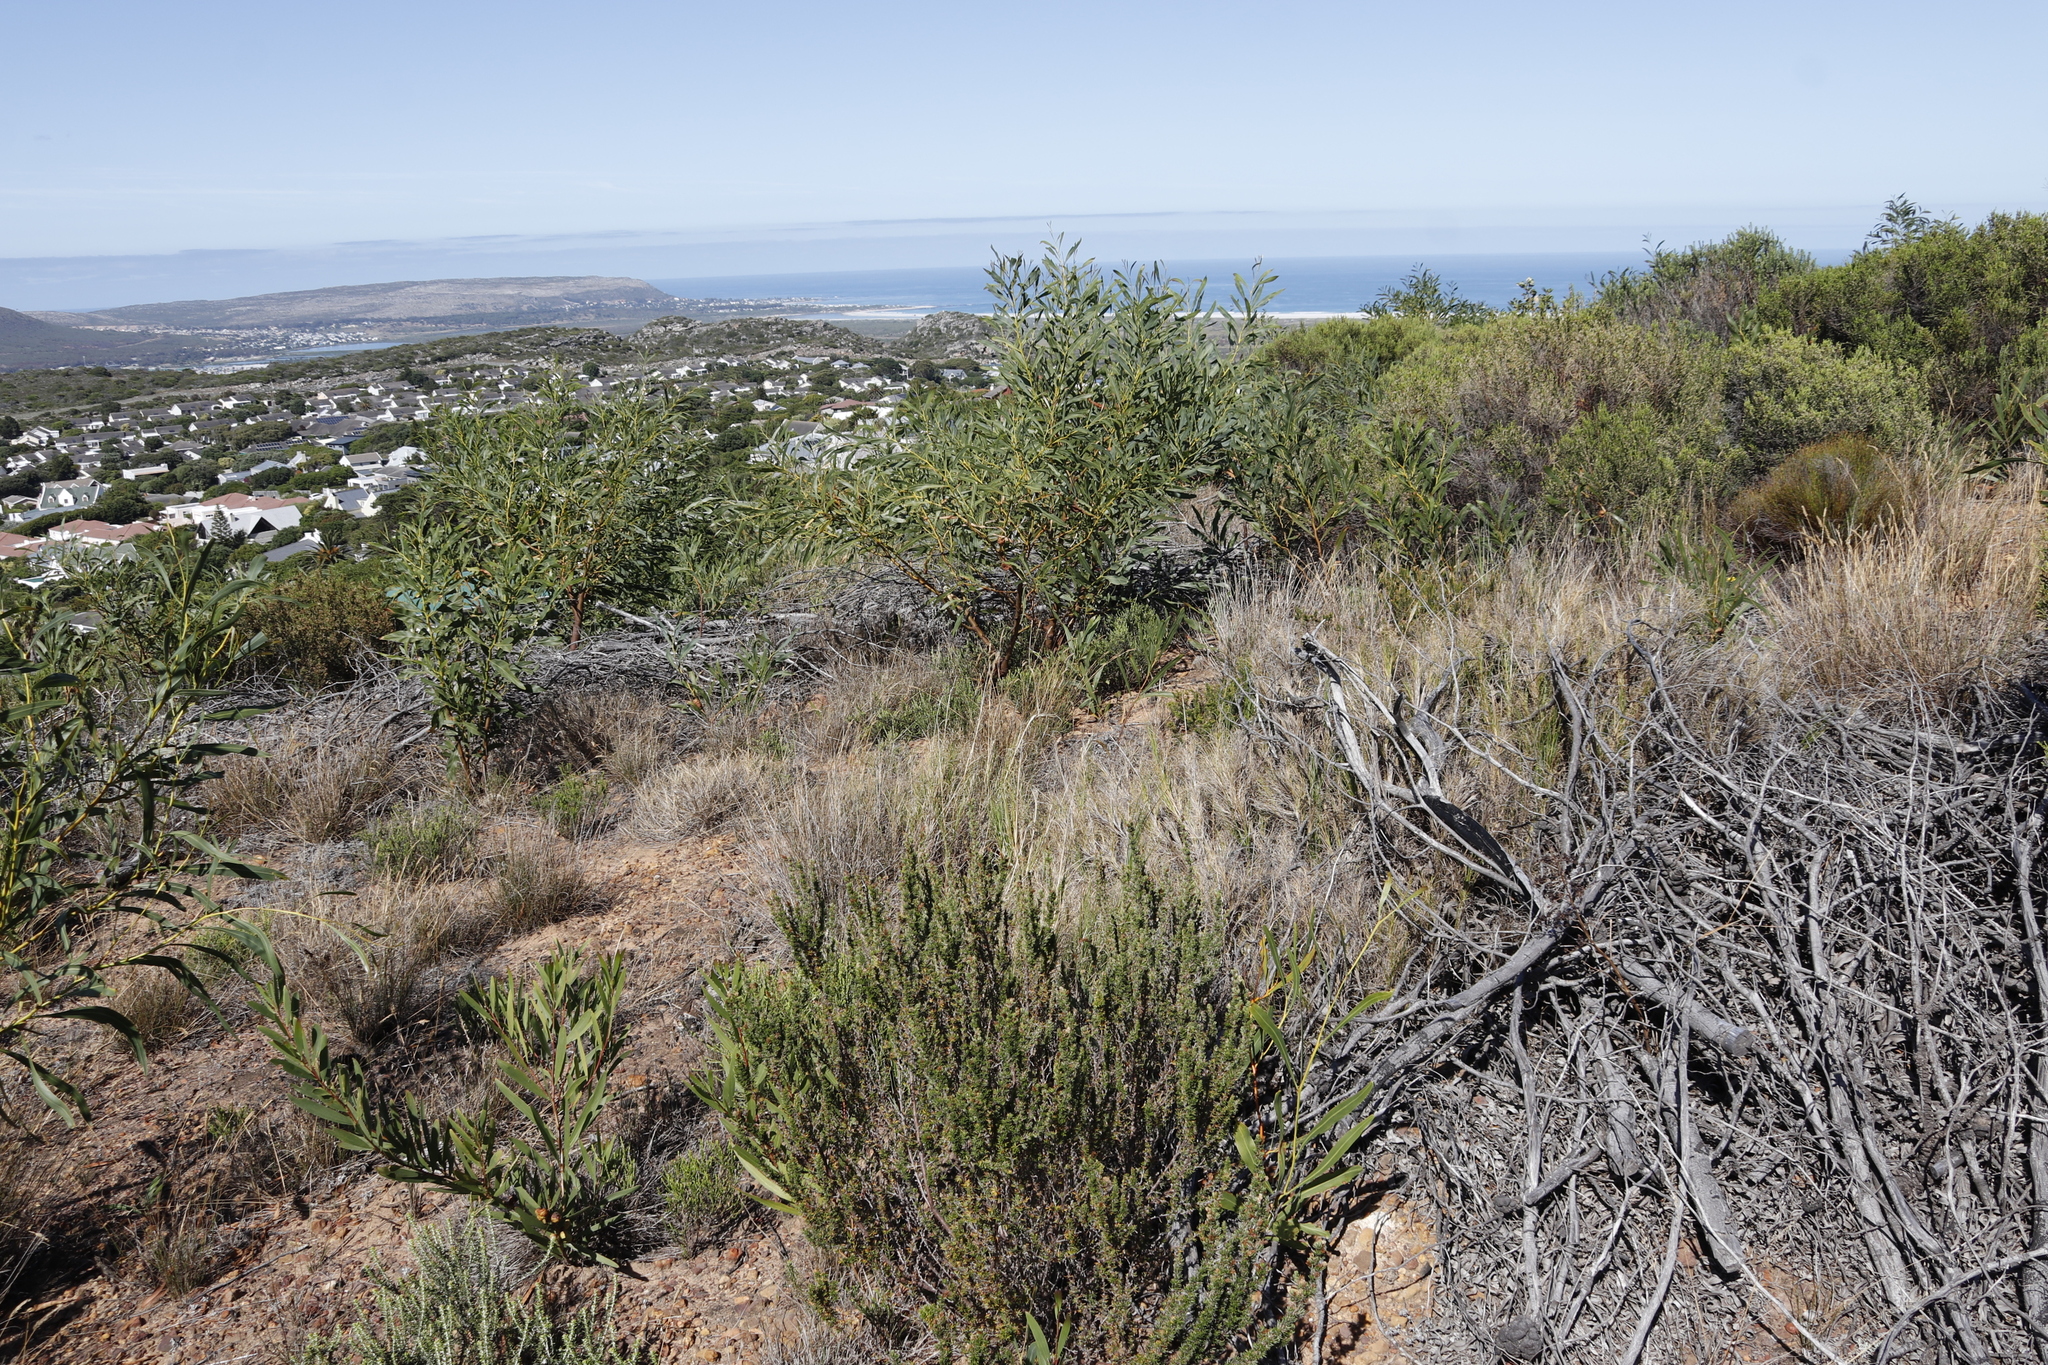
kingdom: Plantae
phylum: Tracheophyta
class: Magnoliopsida
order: Fabales
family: Fabaceae
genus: Acacia
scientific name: Acacia saligna
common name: Orange wattle
